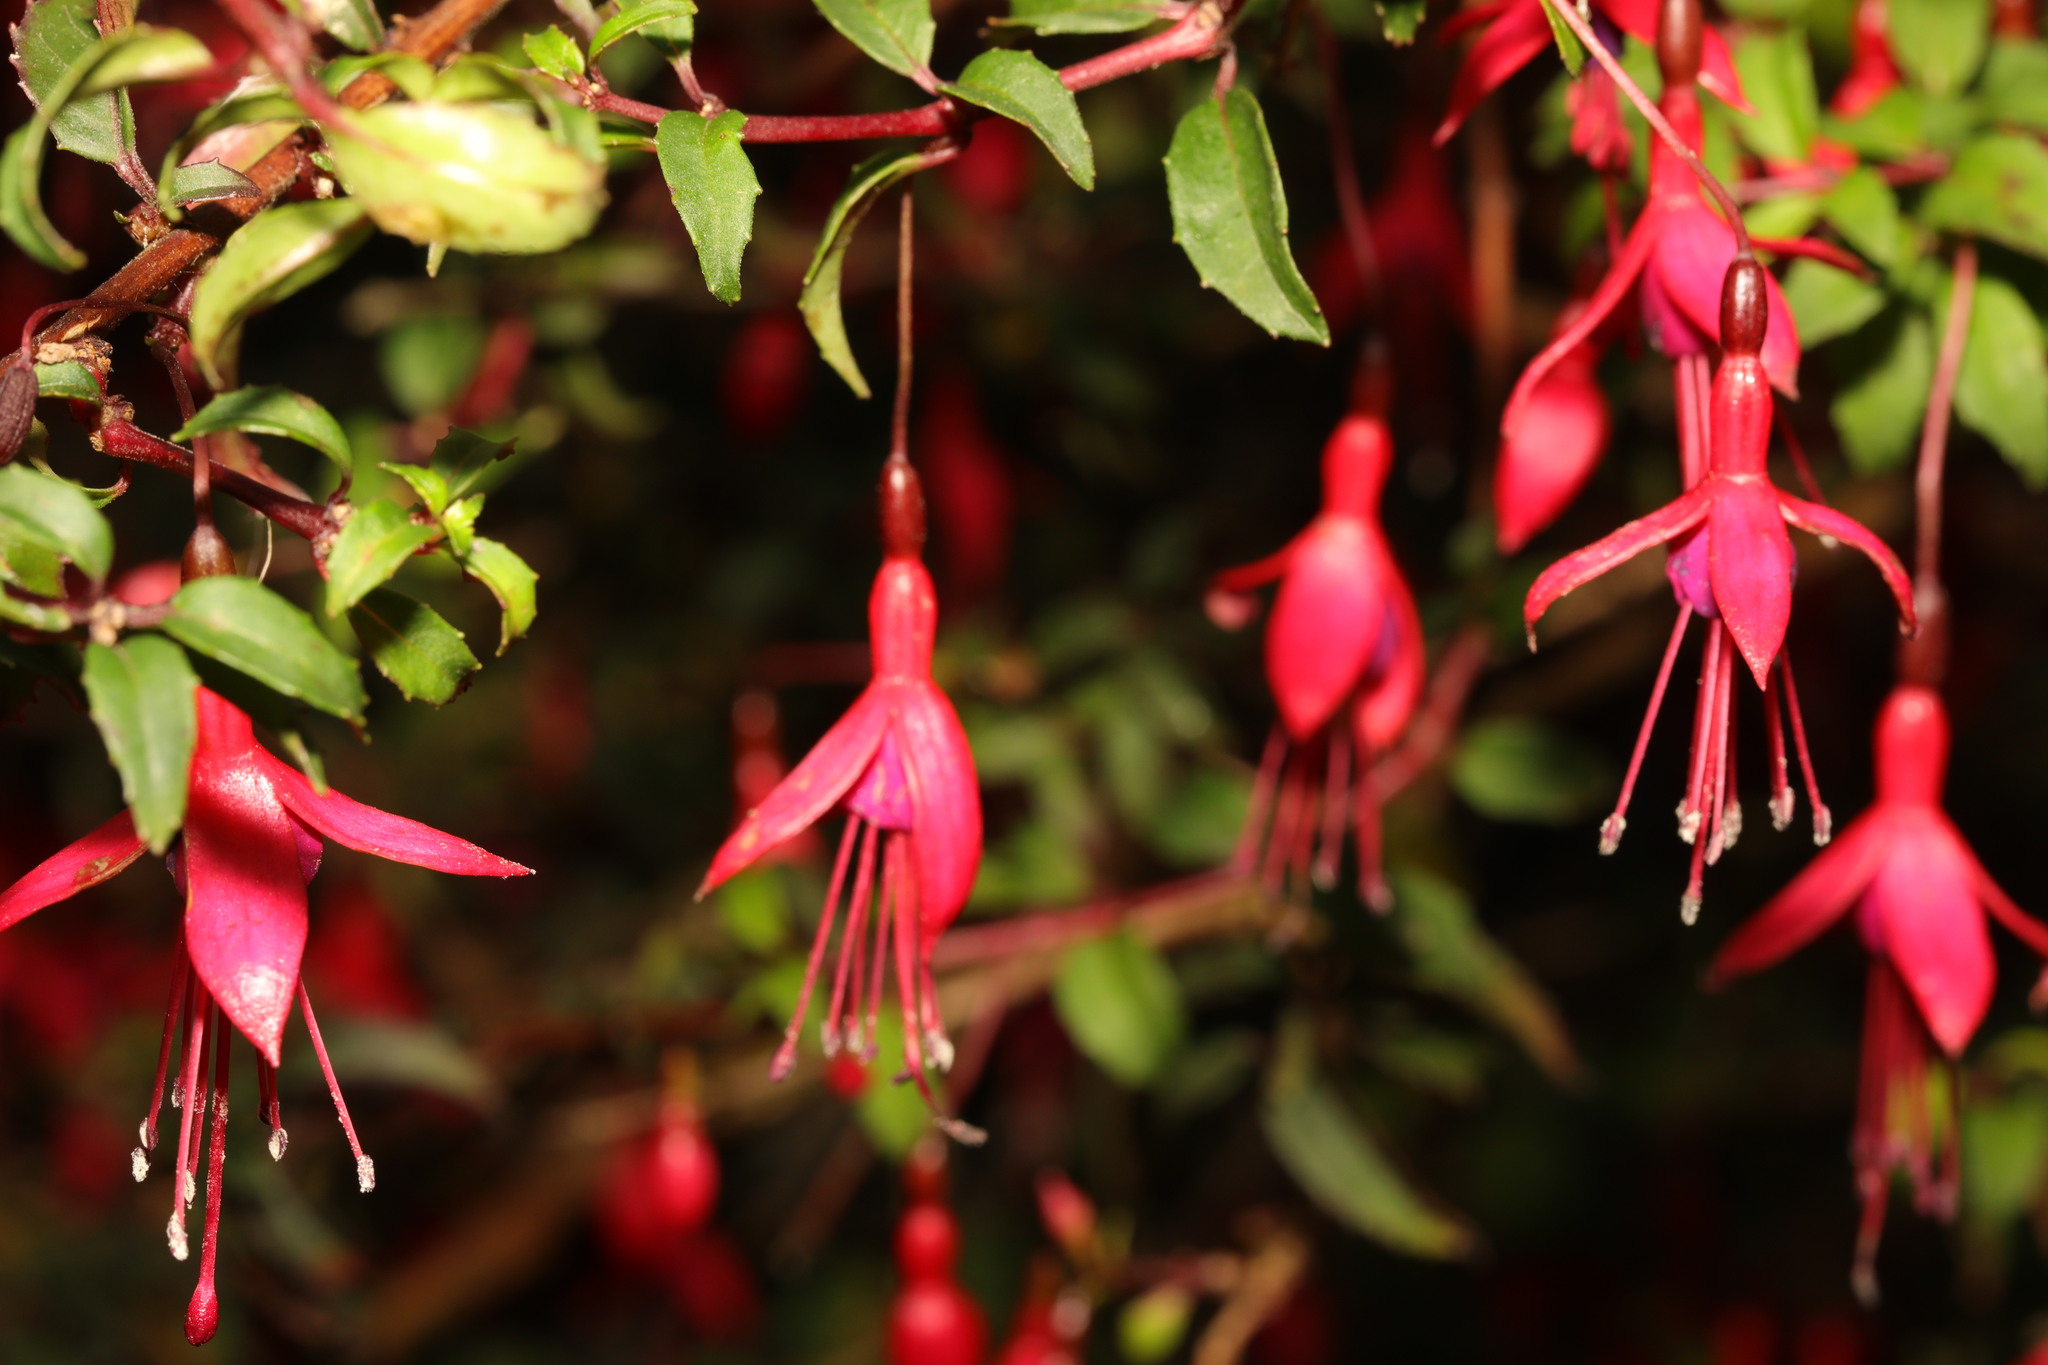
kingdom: Plantae
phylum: Tracheophyta
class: Magnoliopsida
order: Myrtales
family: Onagraceae
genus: Fuchsia
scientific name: Fuchsia magellanica
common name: Hardy fuchsia
